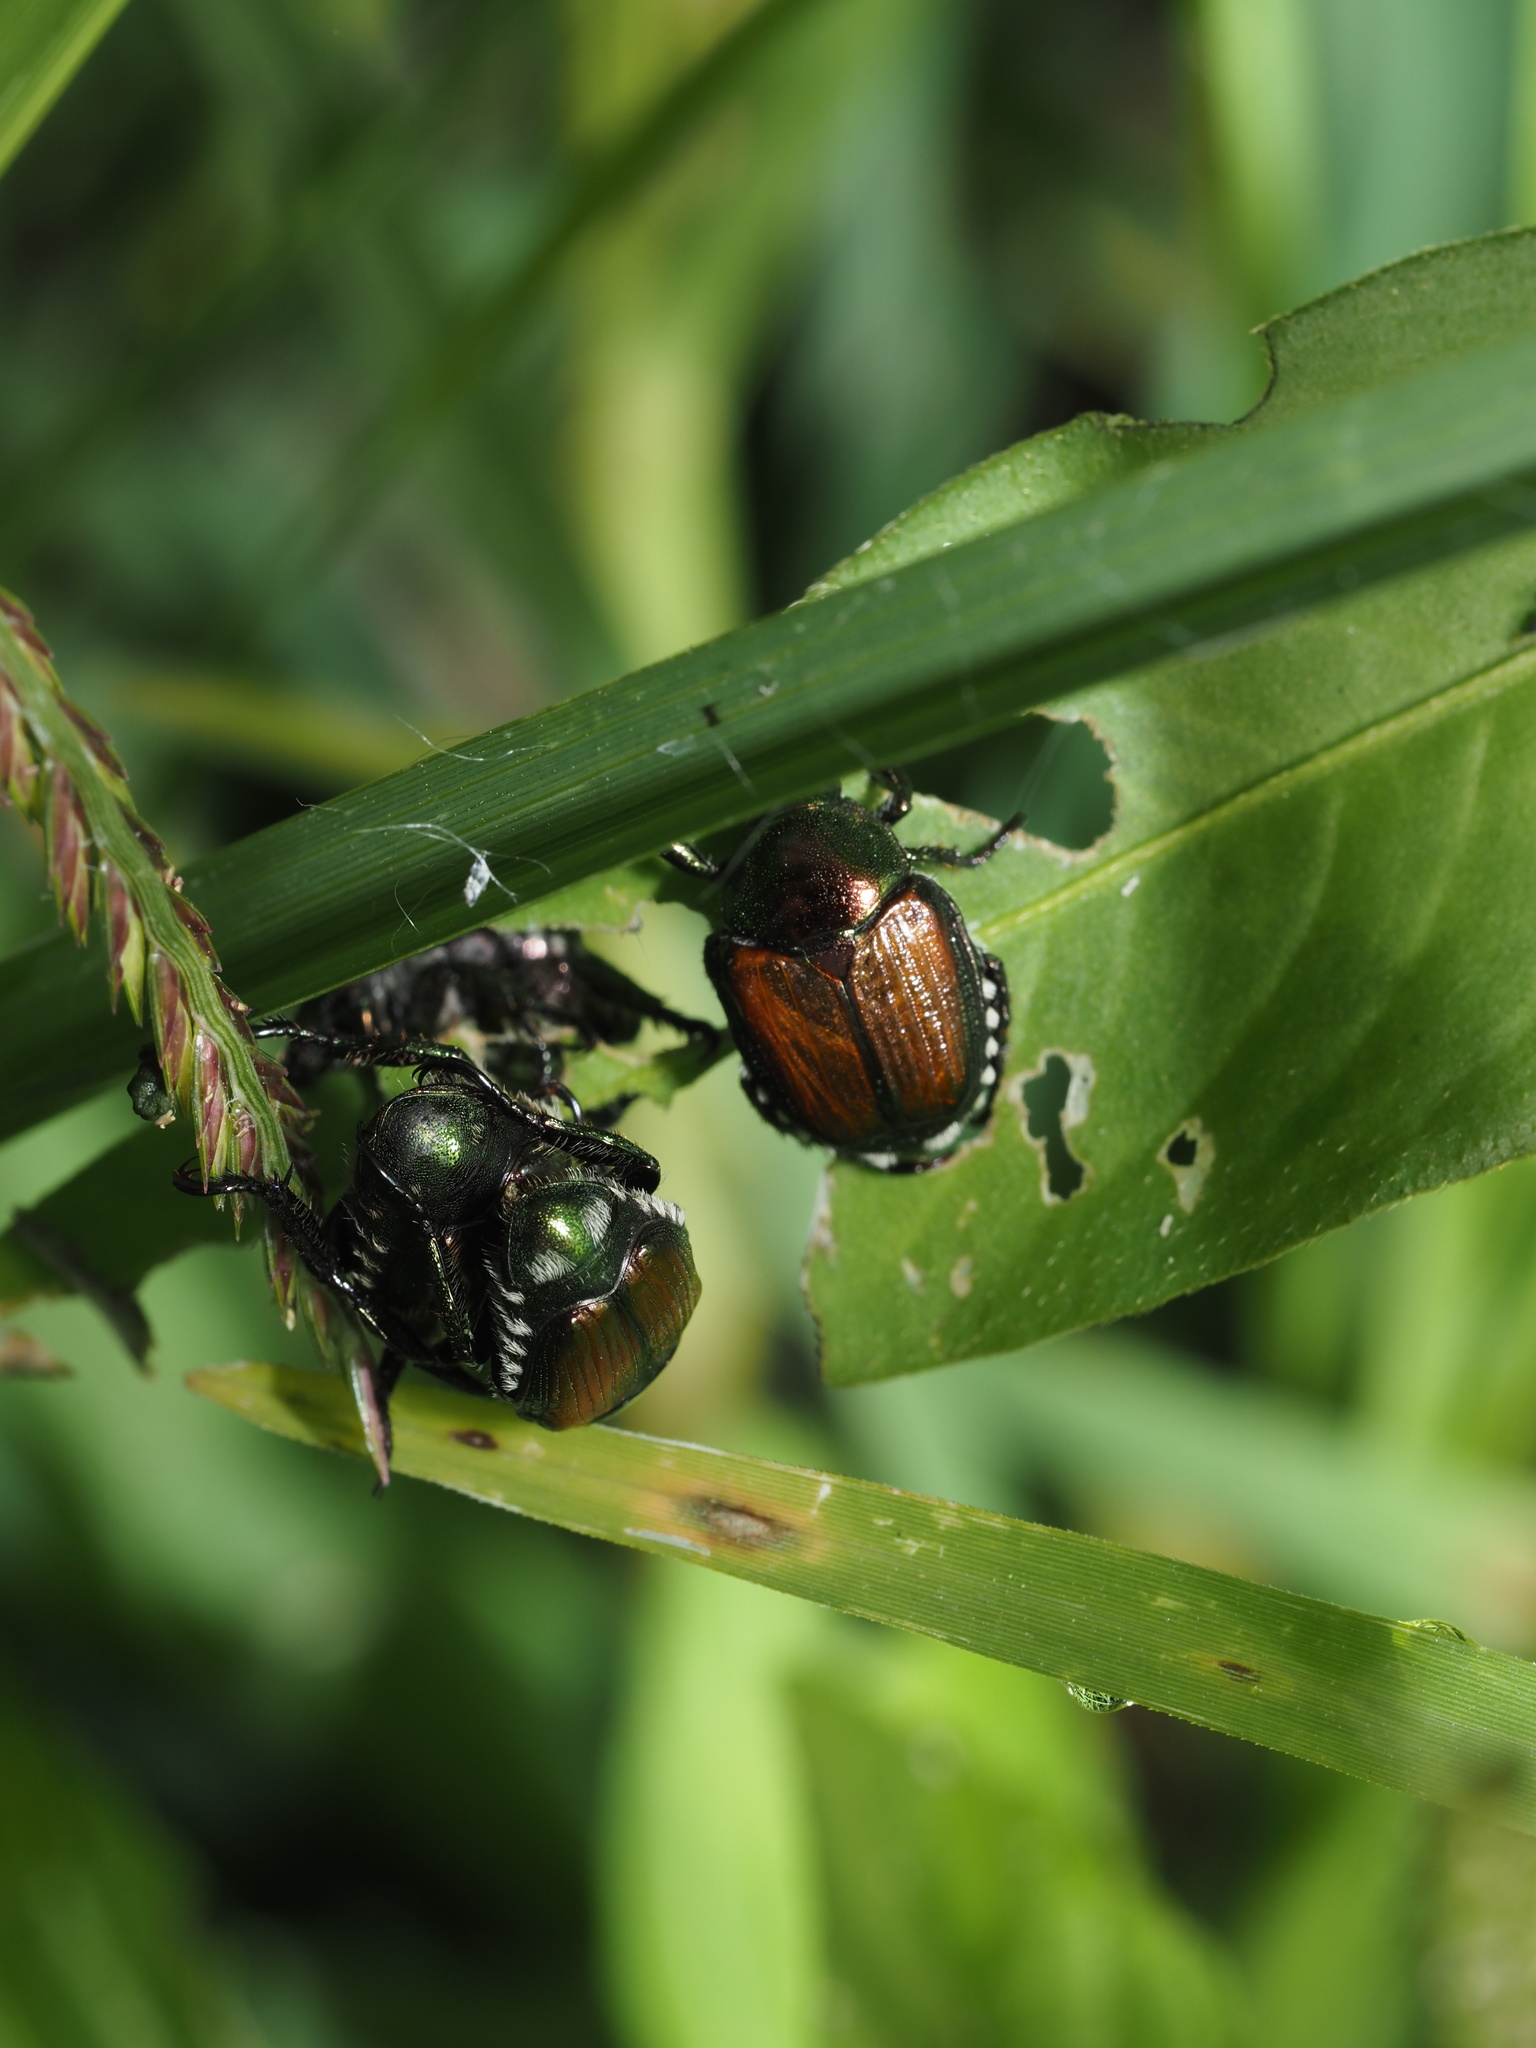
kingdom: Animalia
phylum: Arthropoda
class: Insecta
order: Coleoptera
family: Scarabaeidae
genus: Popillia
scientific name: Popillia japonica
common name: Japanese beetle
